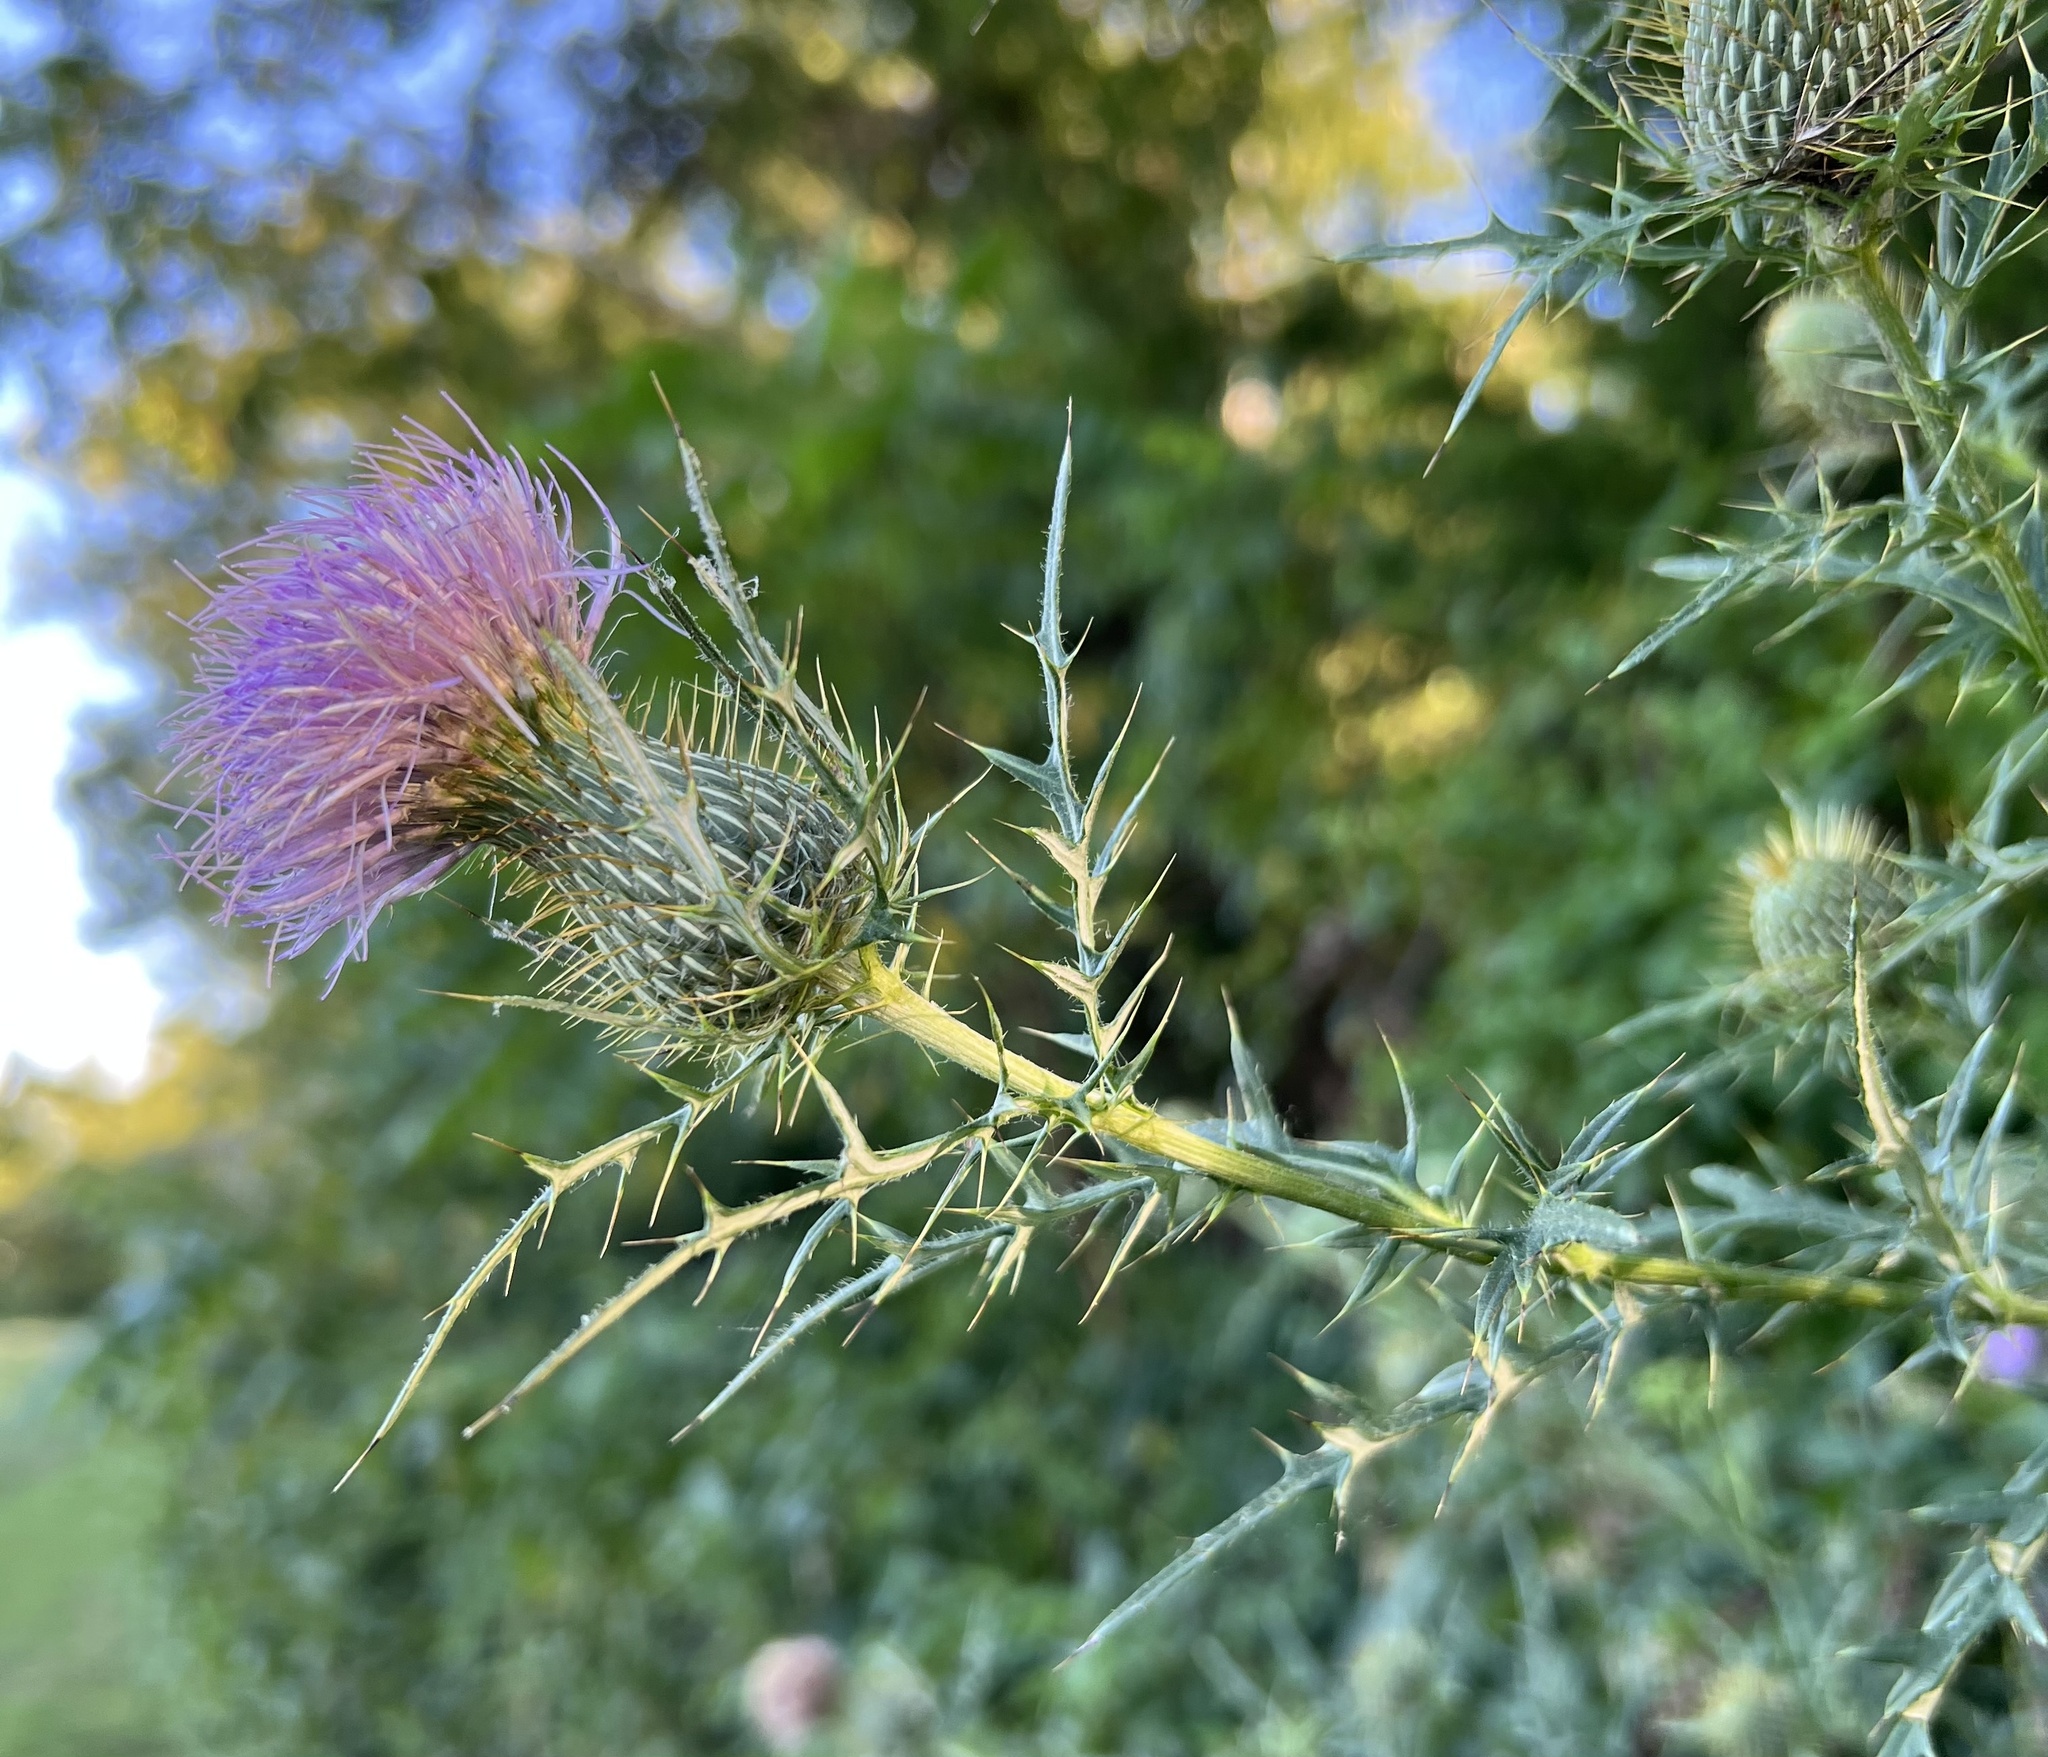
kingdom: Plantae
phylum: Tracheophyta
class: Magnoliopsida
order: Asterales
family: Asteraceae
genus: Cirsium
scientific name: Cirsium discolor
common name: Field thistle
